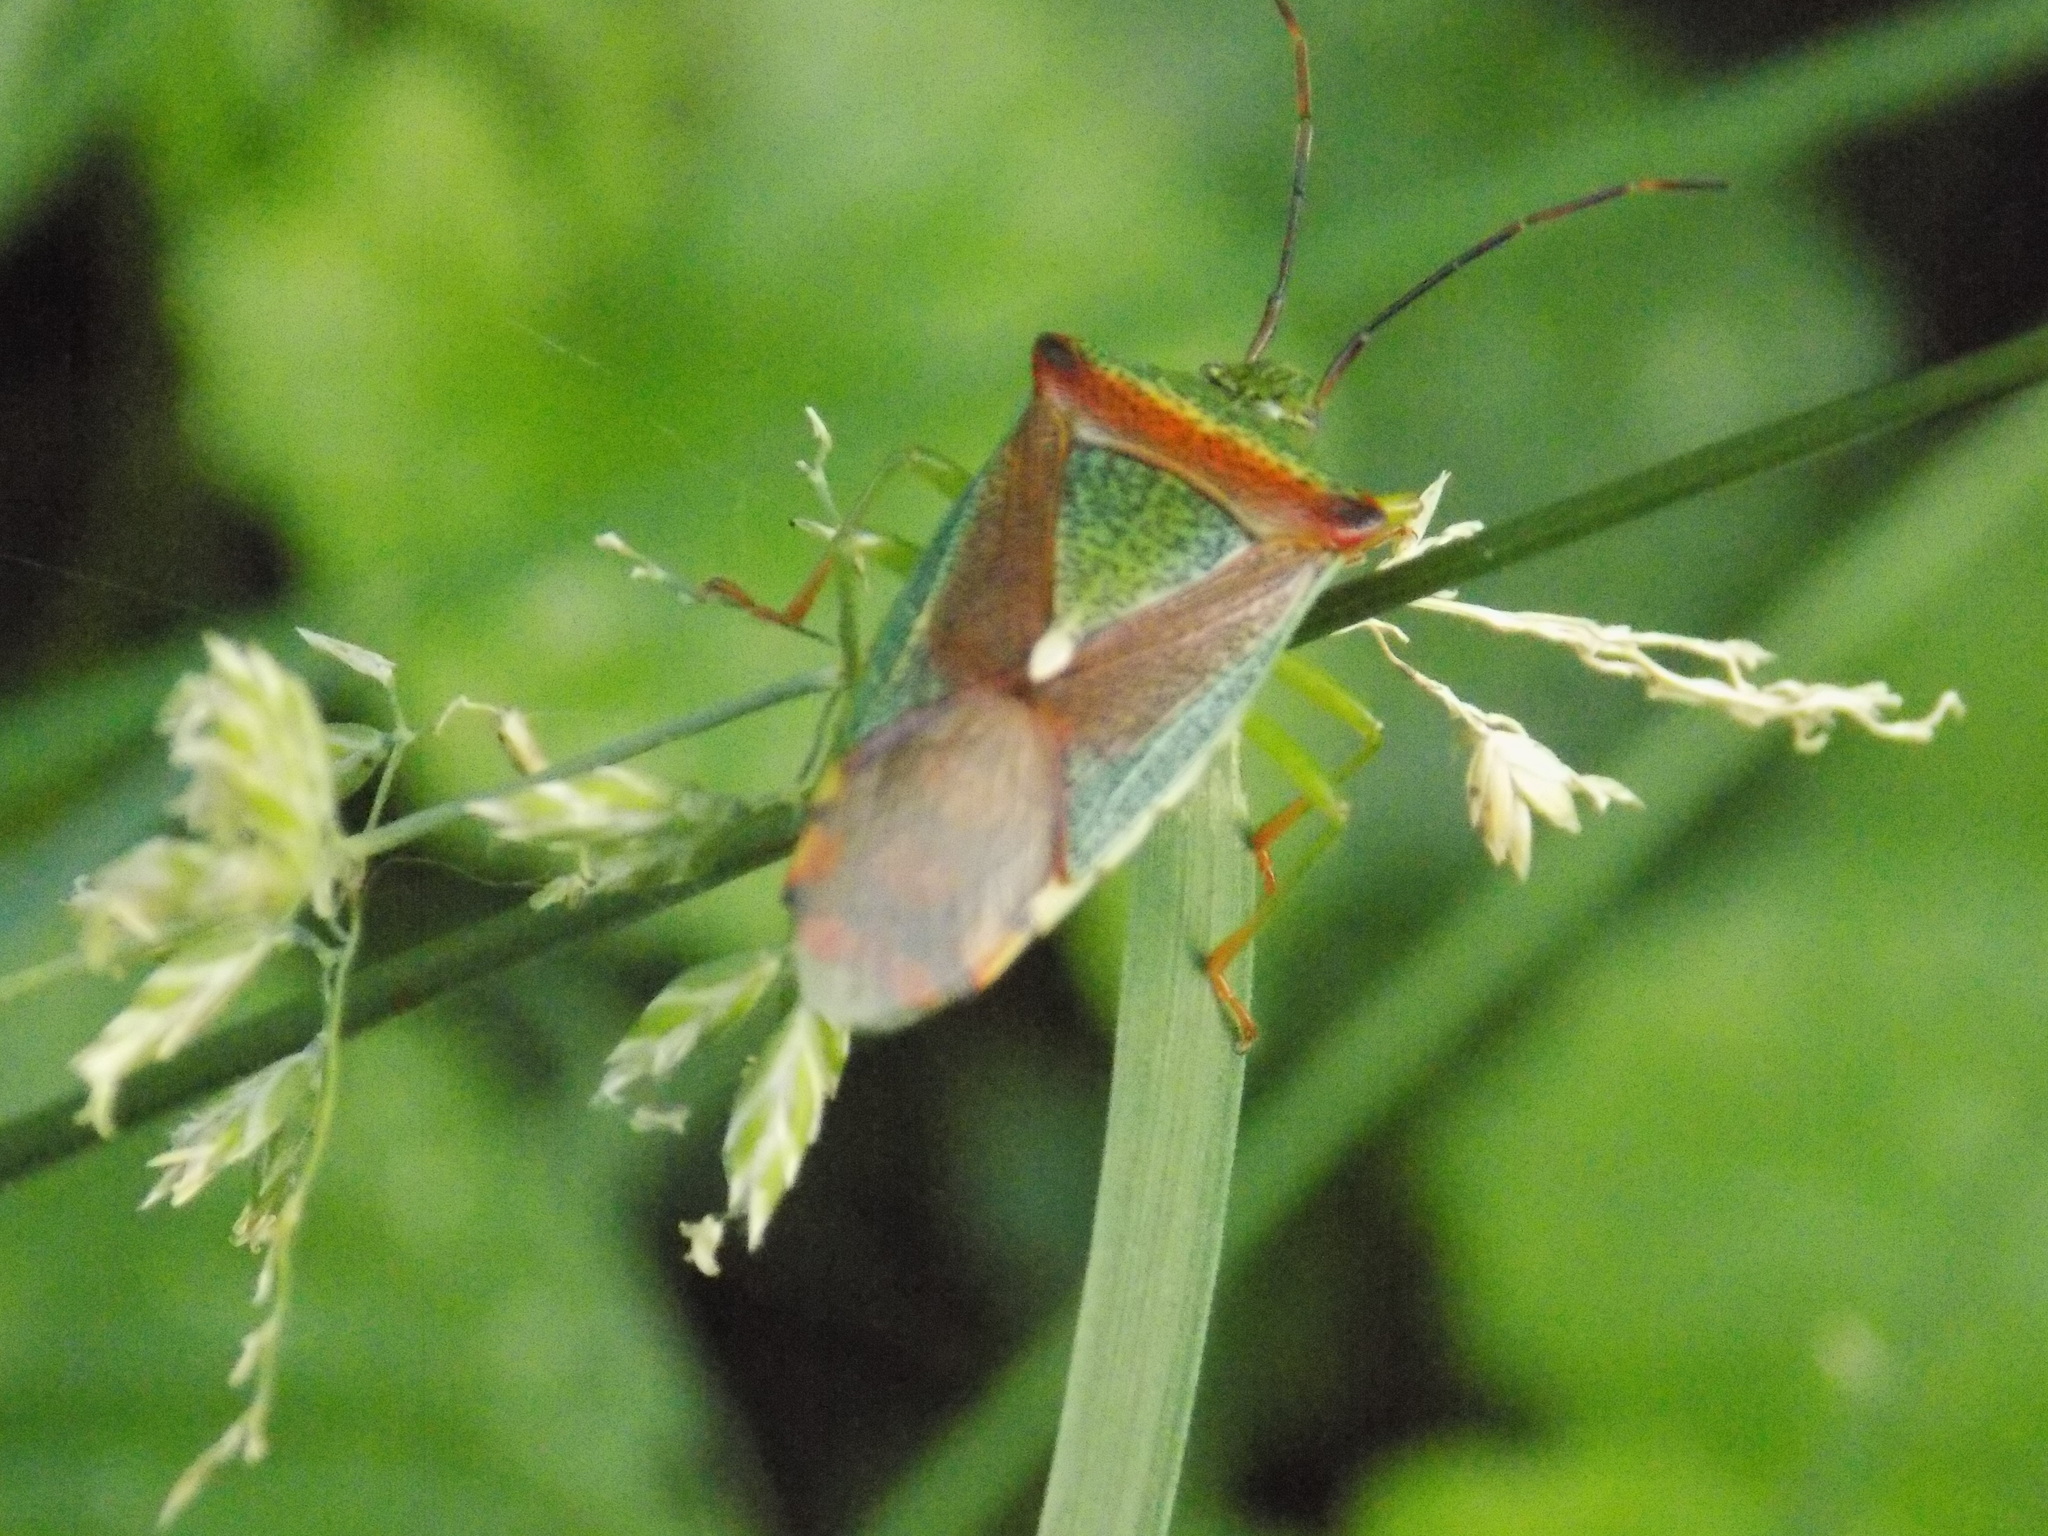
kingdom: Animalia
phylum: Arthropoda
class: Insecta
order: Hemiptera
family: Acanthosomatidae
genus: Acanthosoma
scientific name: Acanthosoma spinicolle
